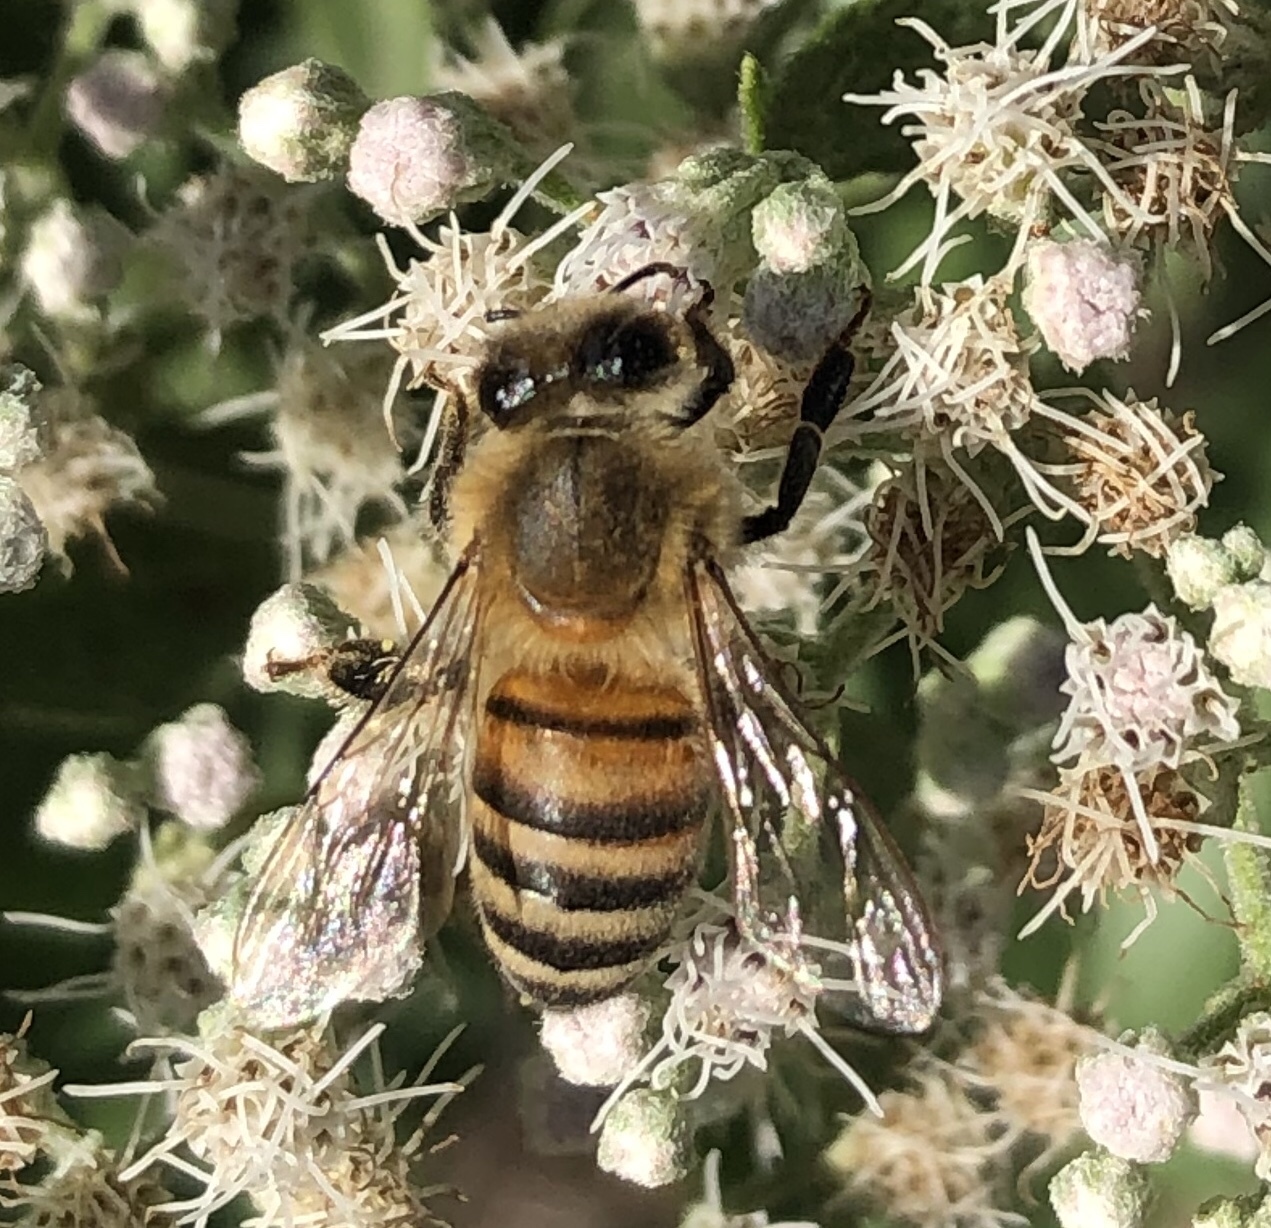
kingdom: Animalia
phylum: Arthropoda
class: Insecta
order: Hymenoptera
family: Apidae
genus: Apis
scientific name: Apis mellifera
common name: Honey bee
